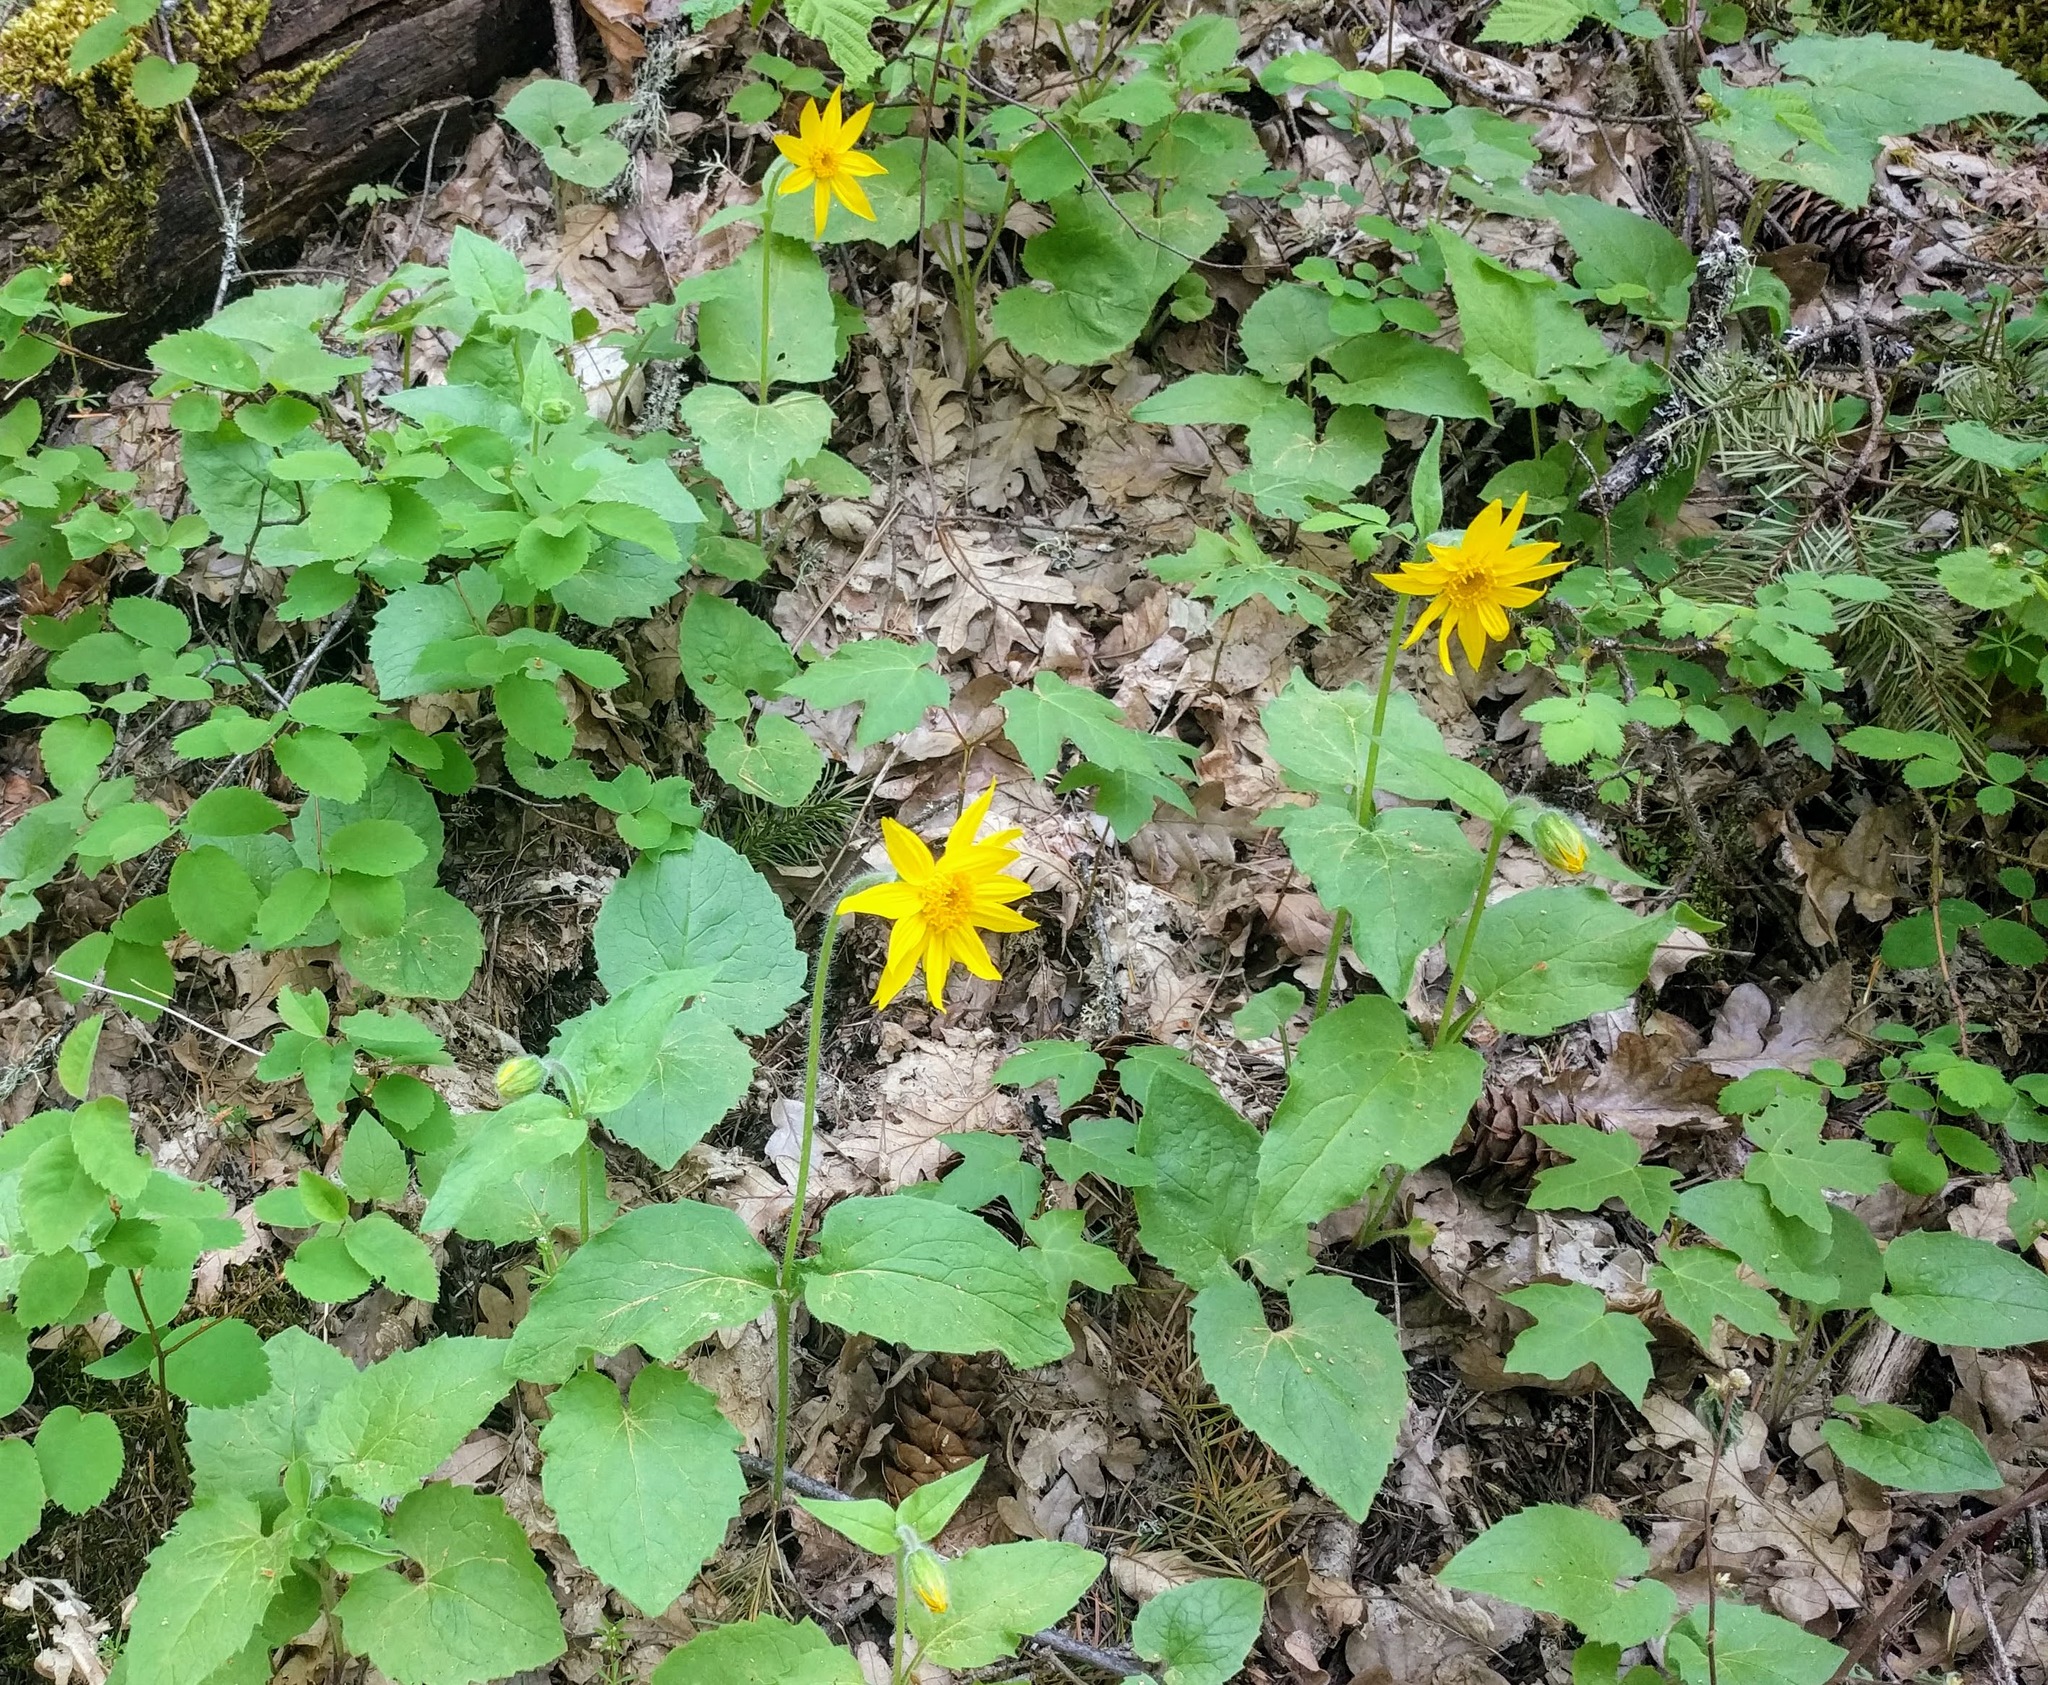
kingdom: Plantae
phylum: Tracheophyta
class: Magnoliopsida
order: Asterales
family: Asteraceae
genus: Arnica
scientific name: Arnica cordifolia
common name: Heart-leaf arnica
